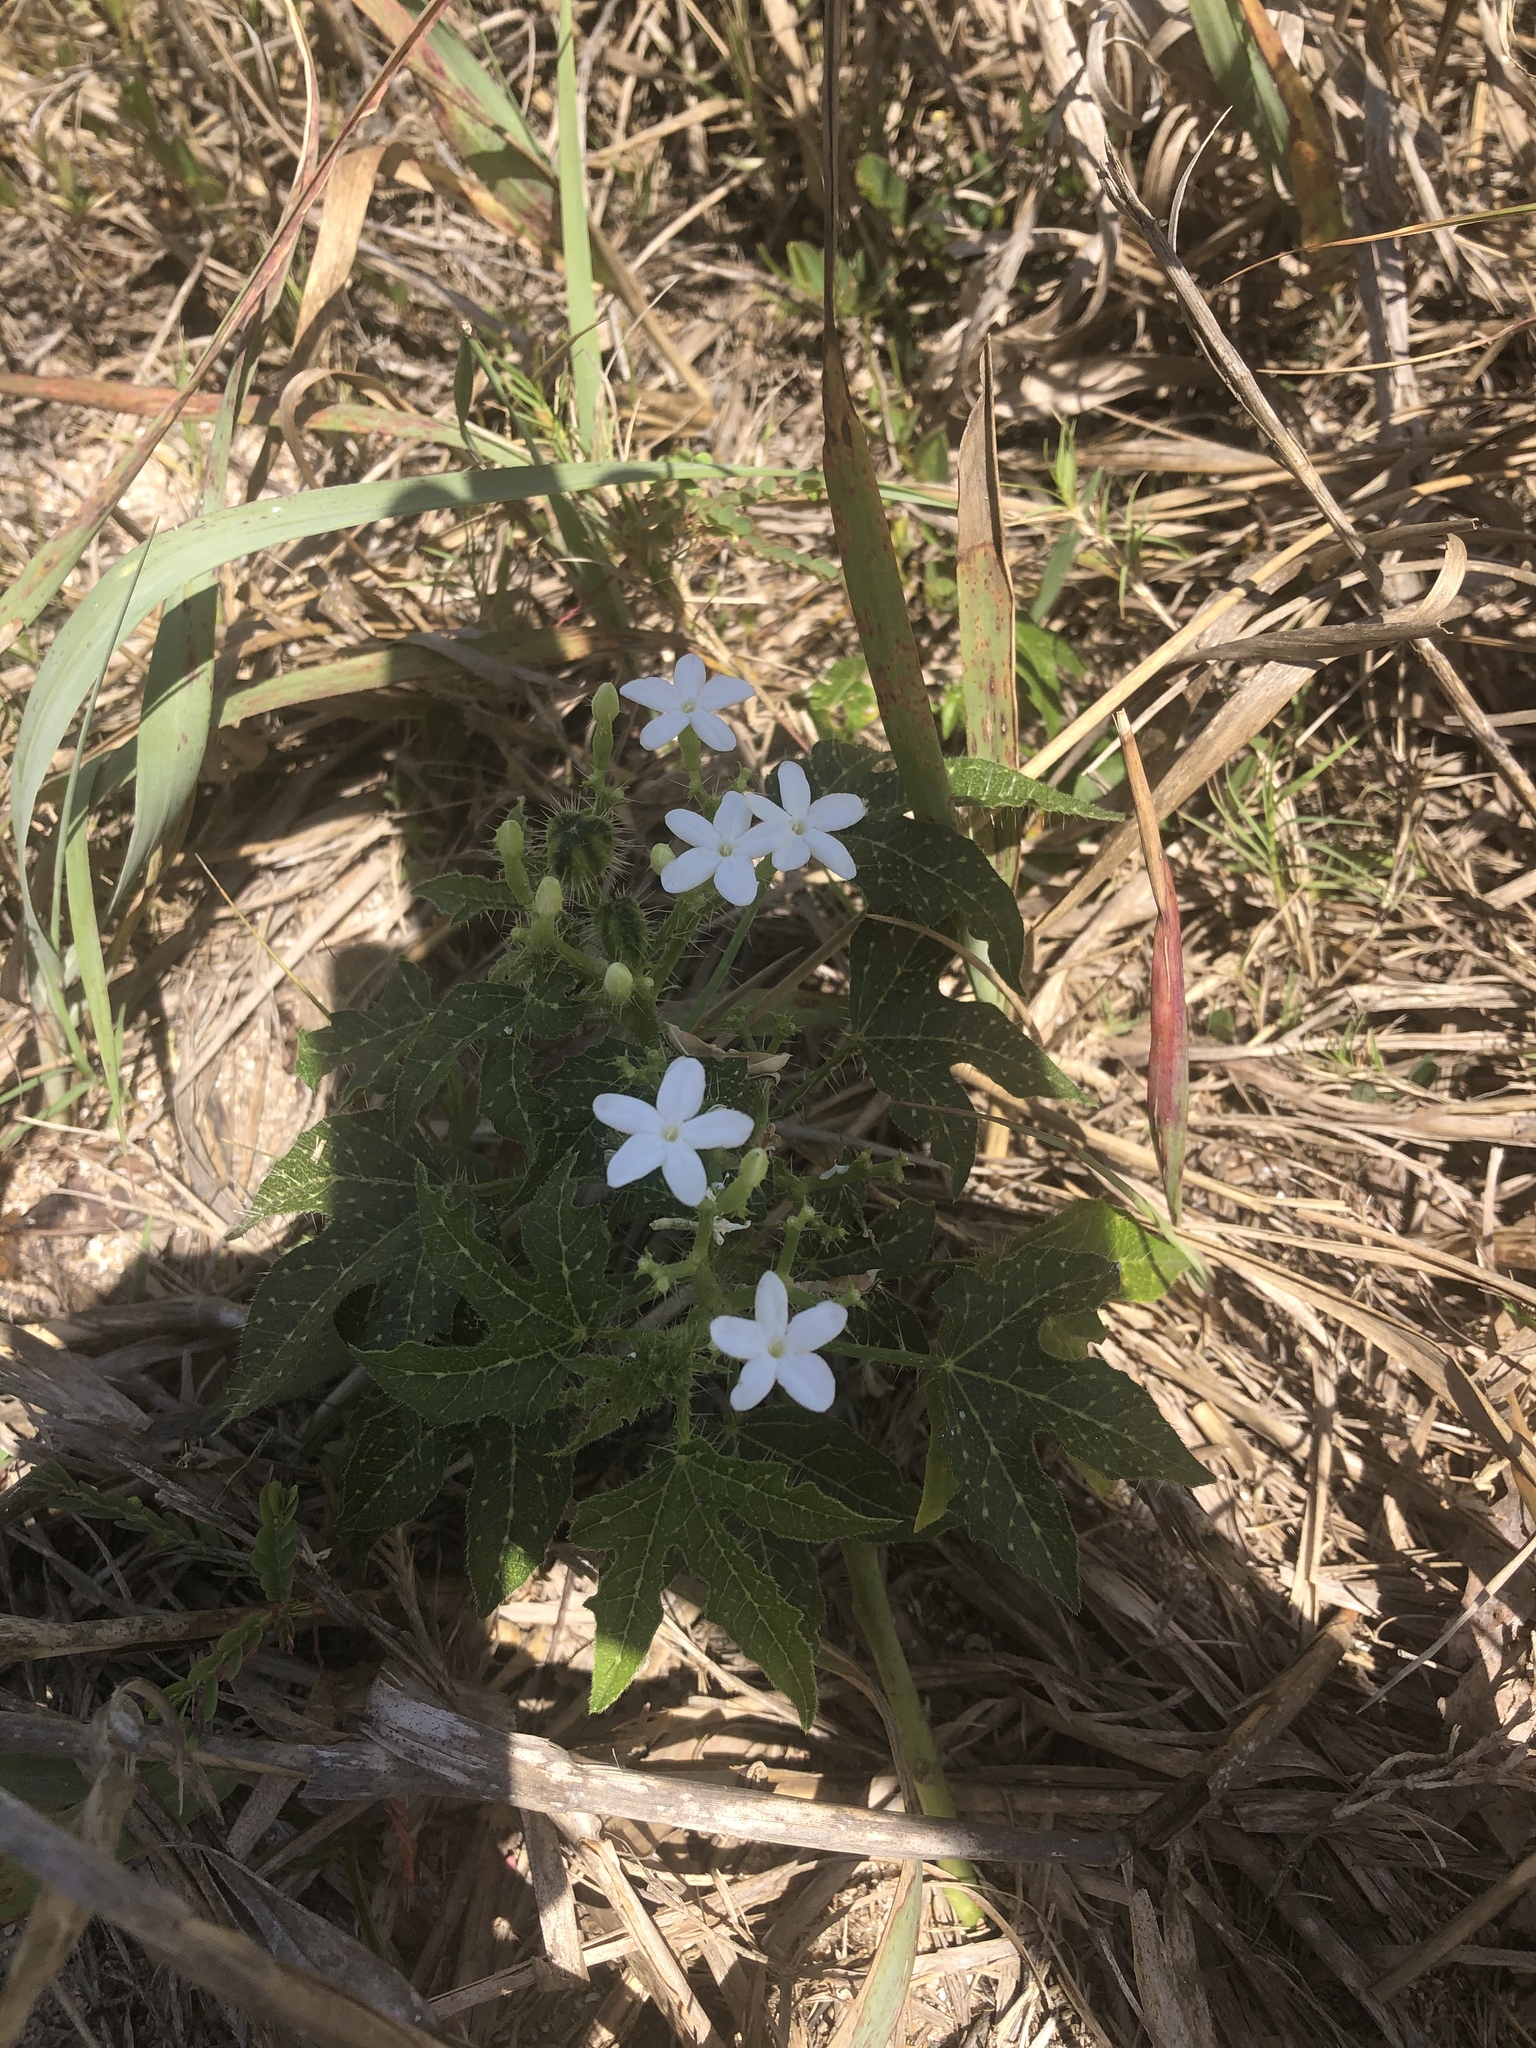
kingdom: Plantae
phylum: Tracheophyta
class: Magnoliopsida
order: Malpighiales
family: Euphorbiaceae
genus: Cnidoscolus
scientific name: Cnidoscolus stimulosus
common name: Bull-nettle
